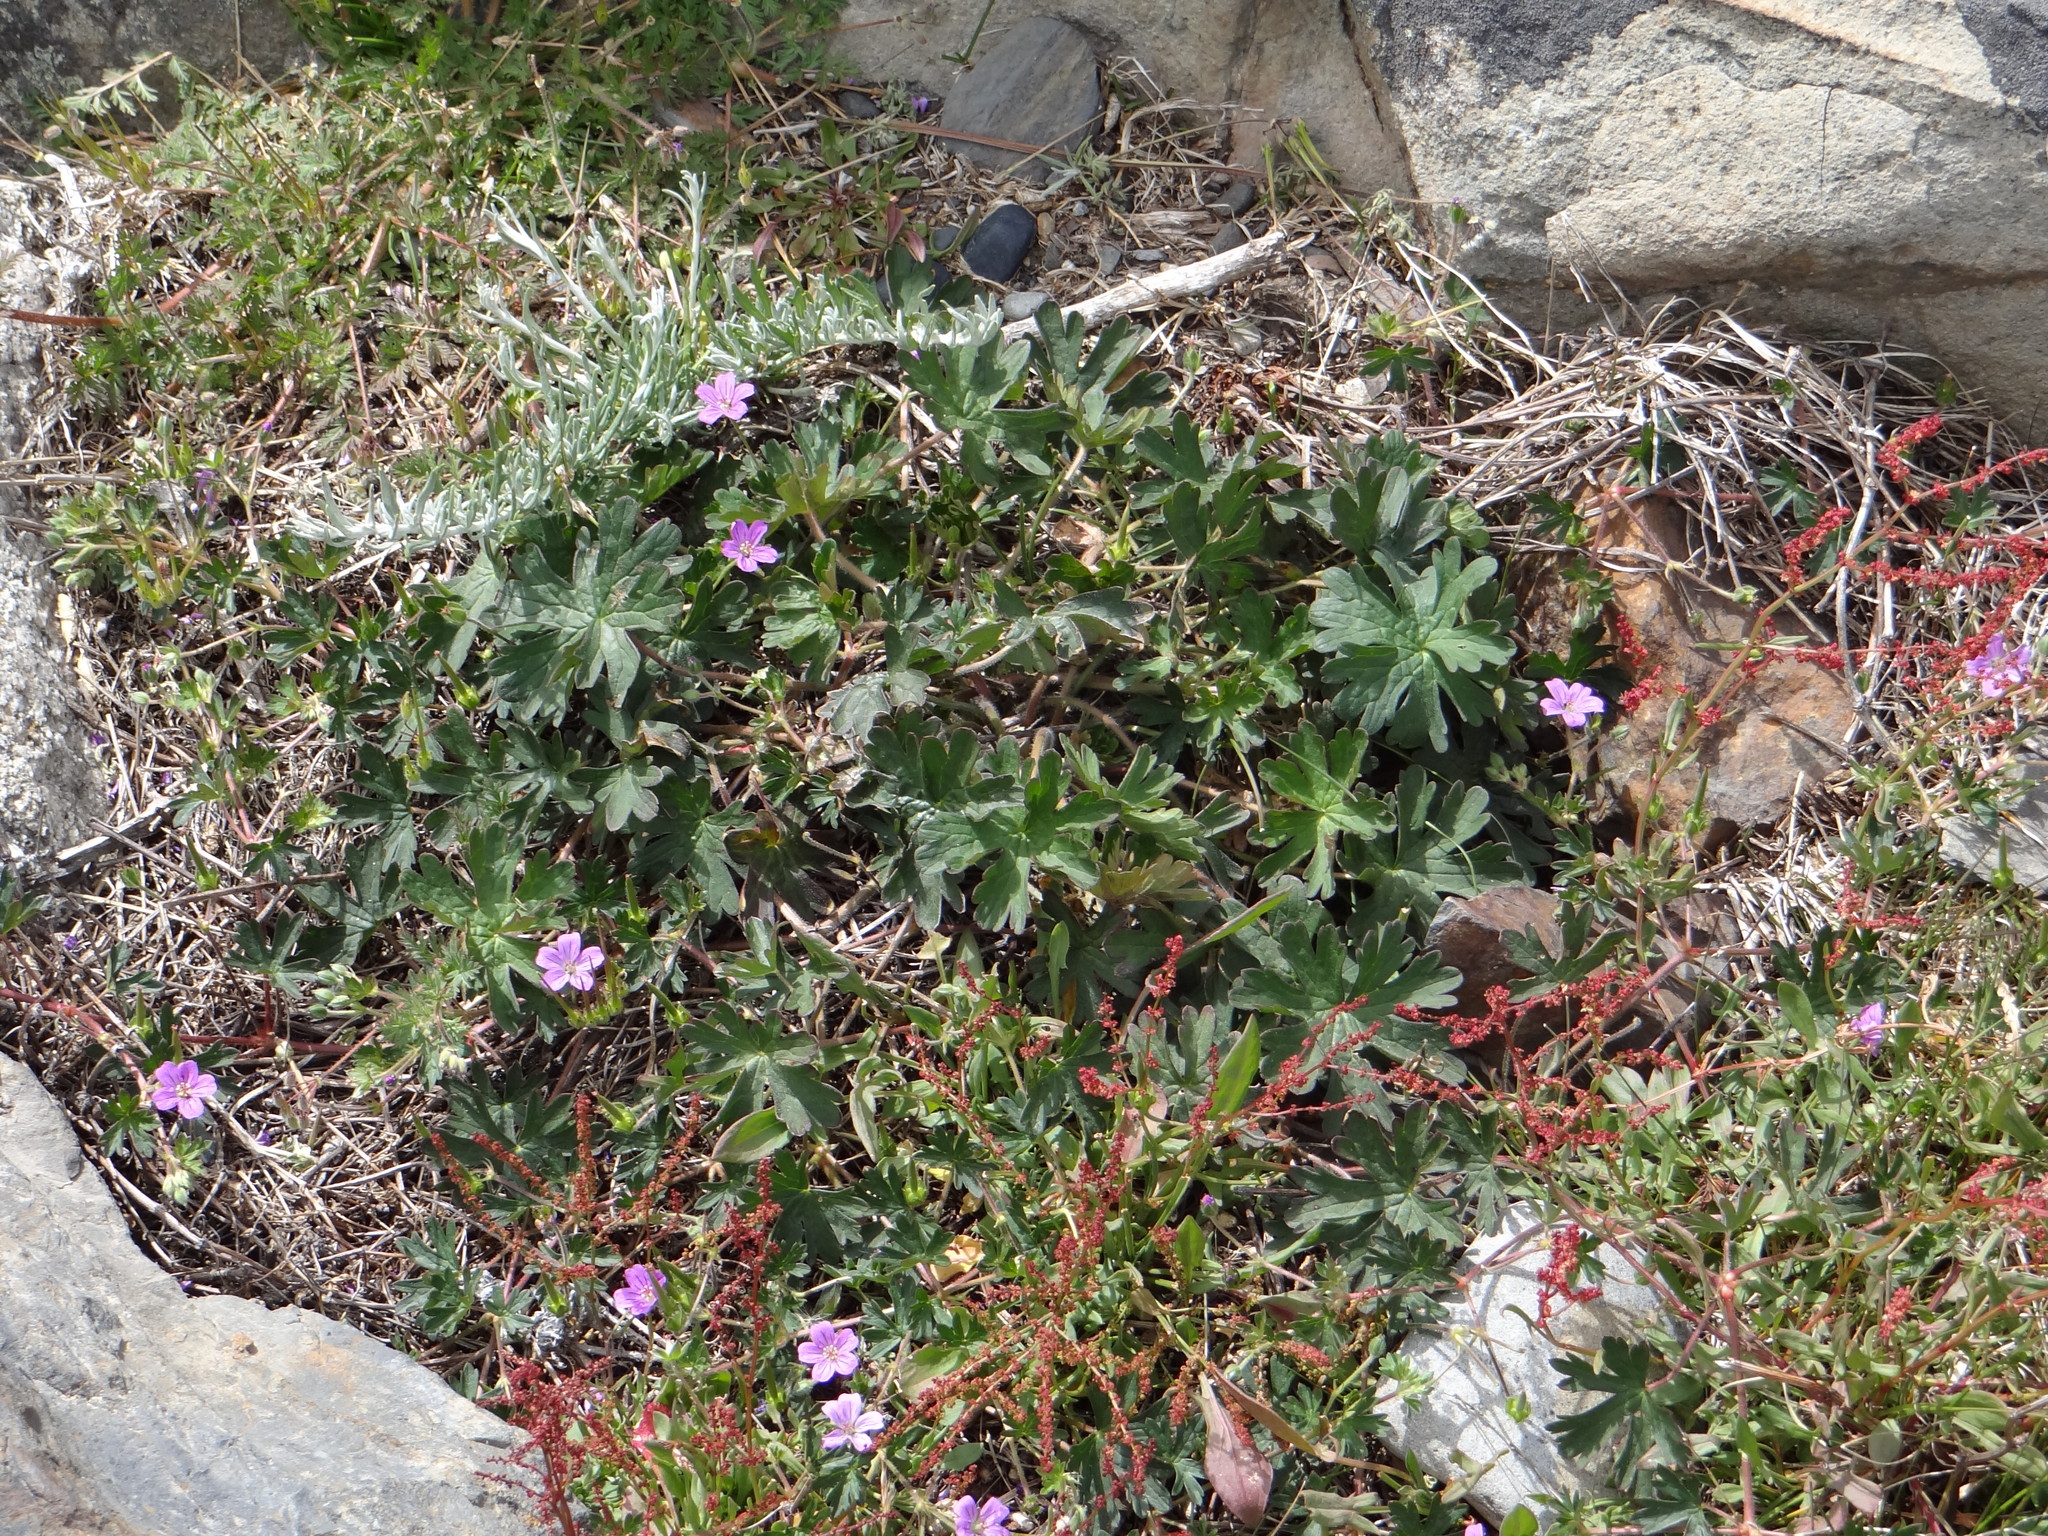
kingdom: Plantae
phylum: Tracheophyta
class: Magnoliopsida
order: Geraniales
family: Geraniaceae
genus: Geranium
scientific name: Geranium magellanicum
